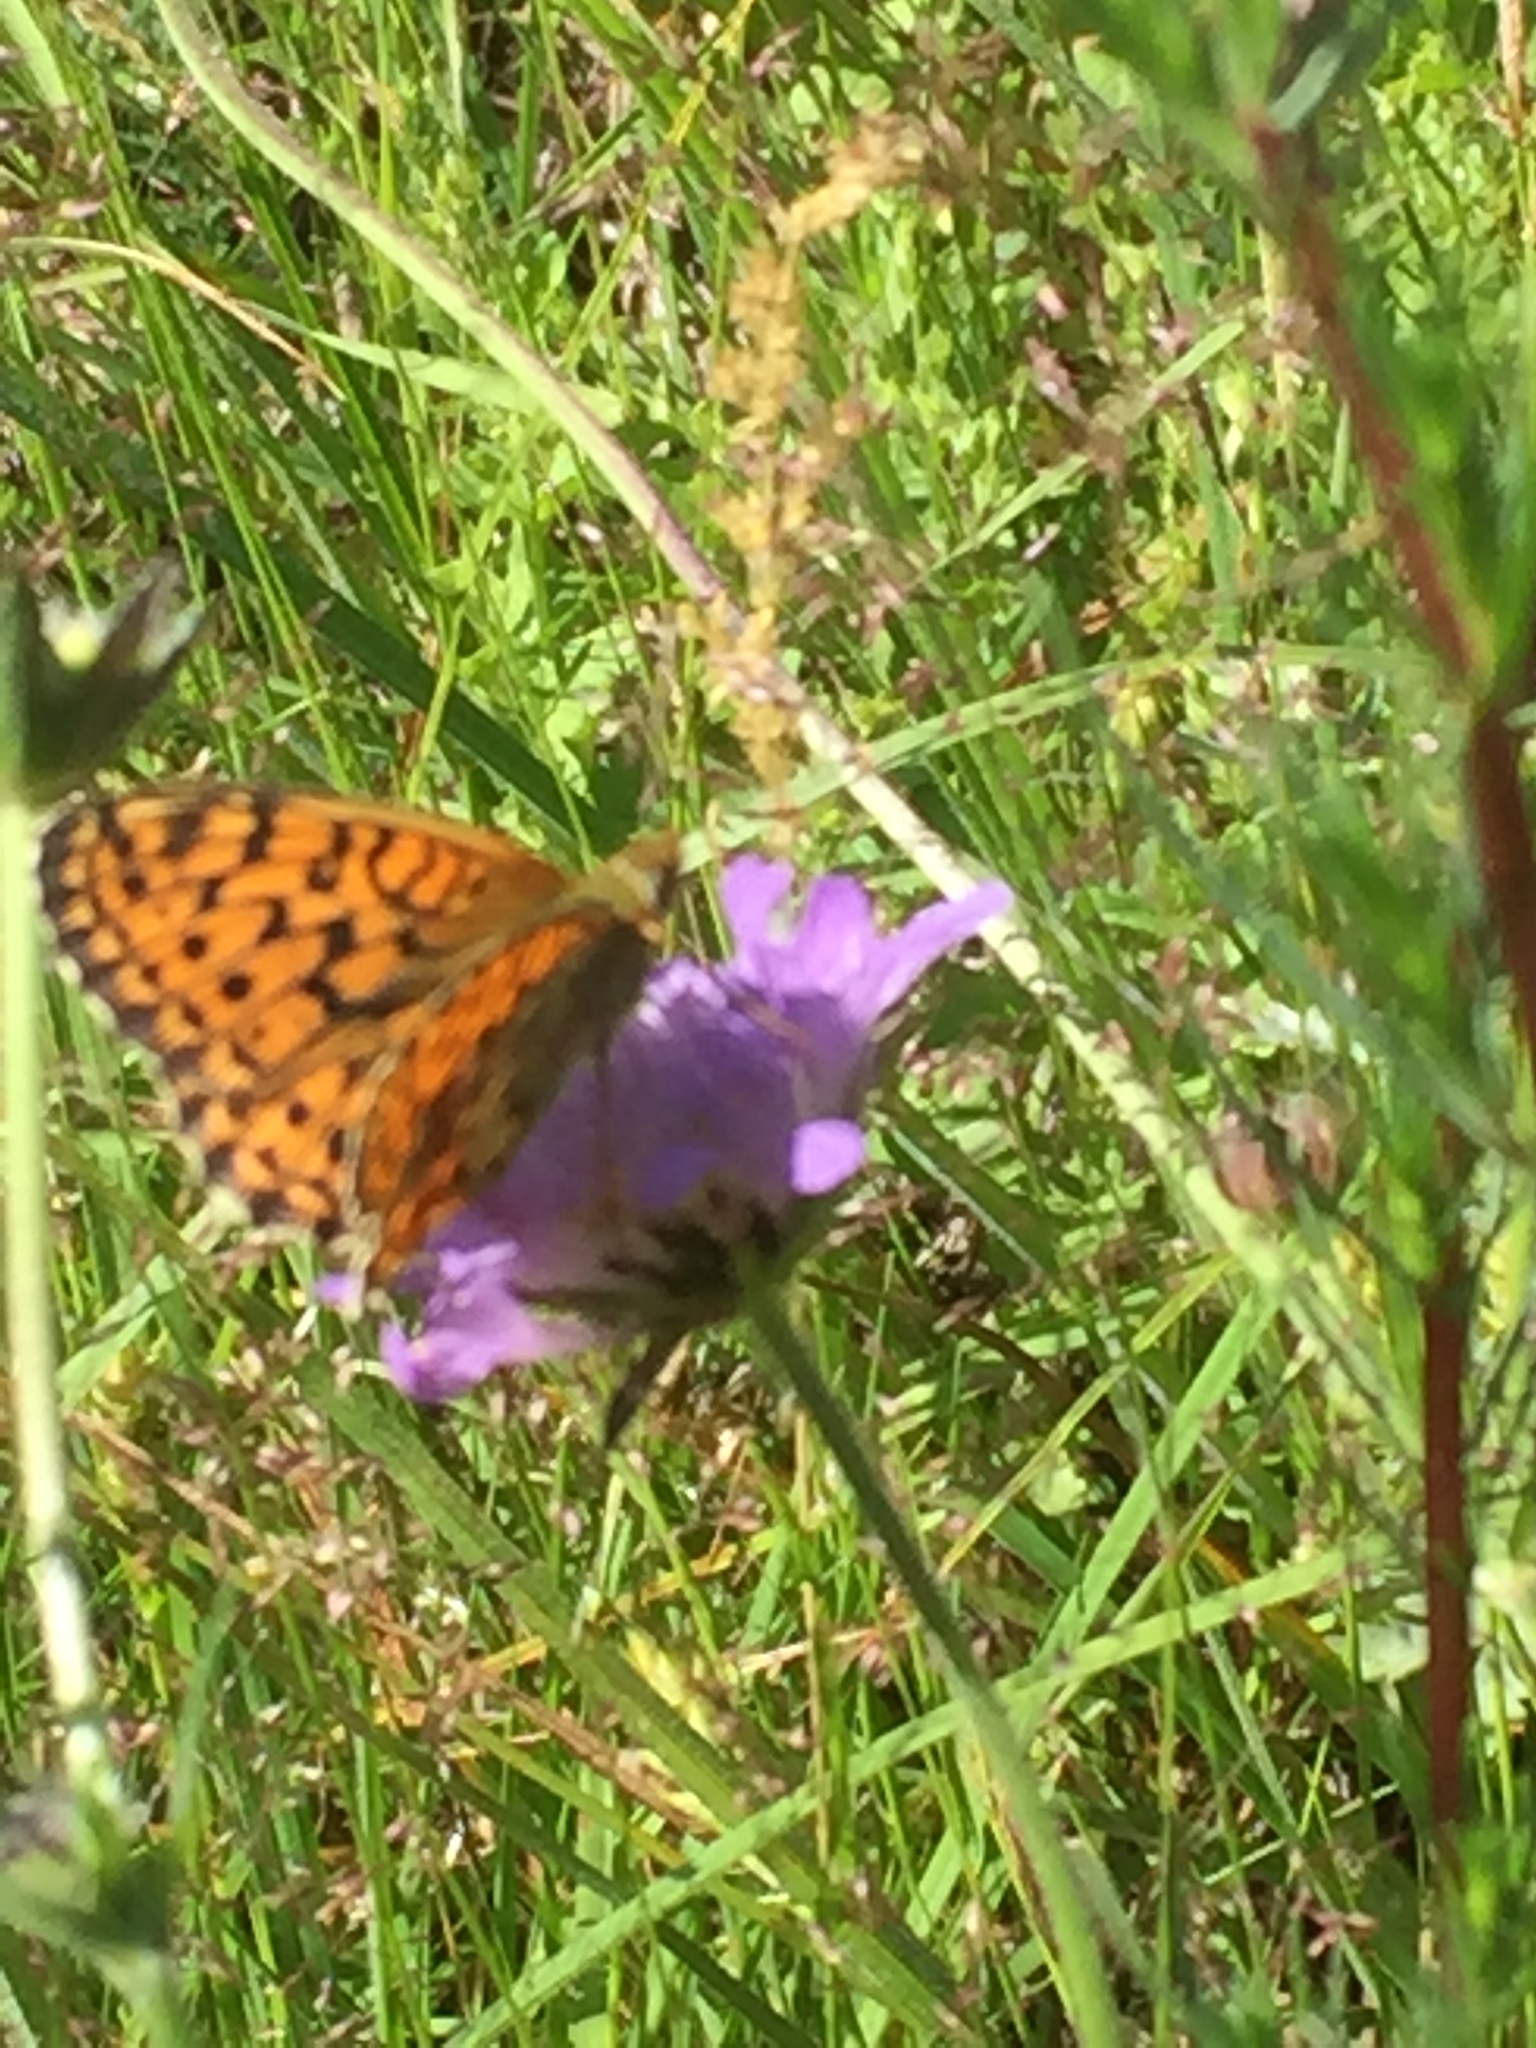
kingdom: Animalia
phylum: Arthropoda
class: Insecta
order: Lepidoptera
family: Nymphalidae
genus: Brenthis
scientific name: Brenthis ino
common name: Lesser marbled fritillary
